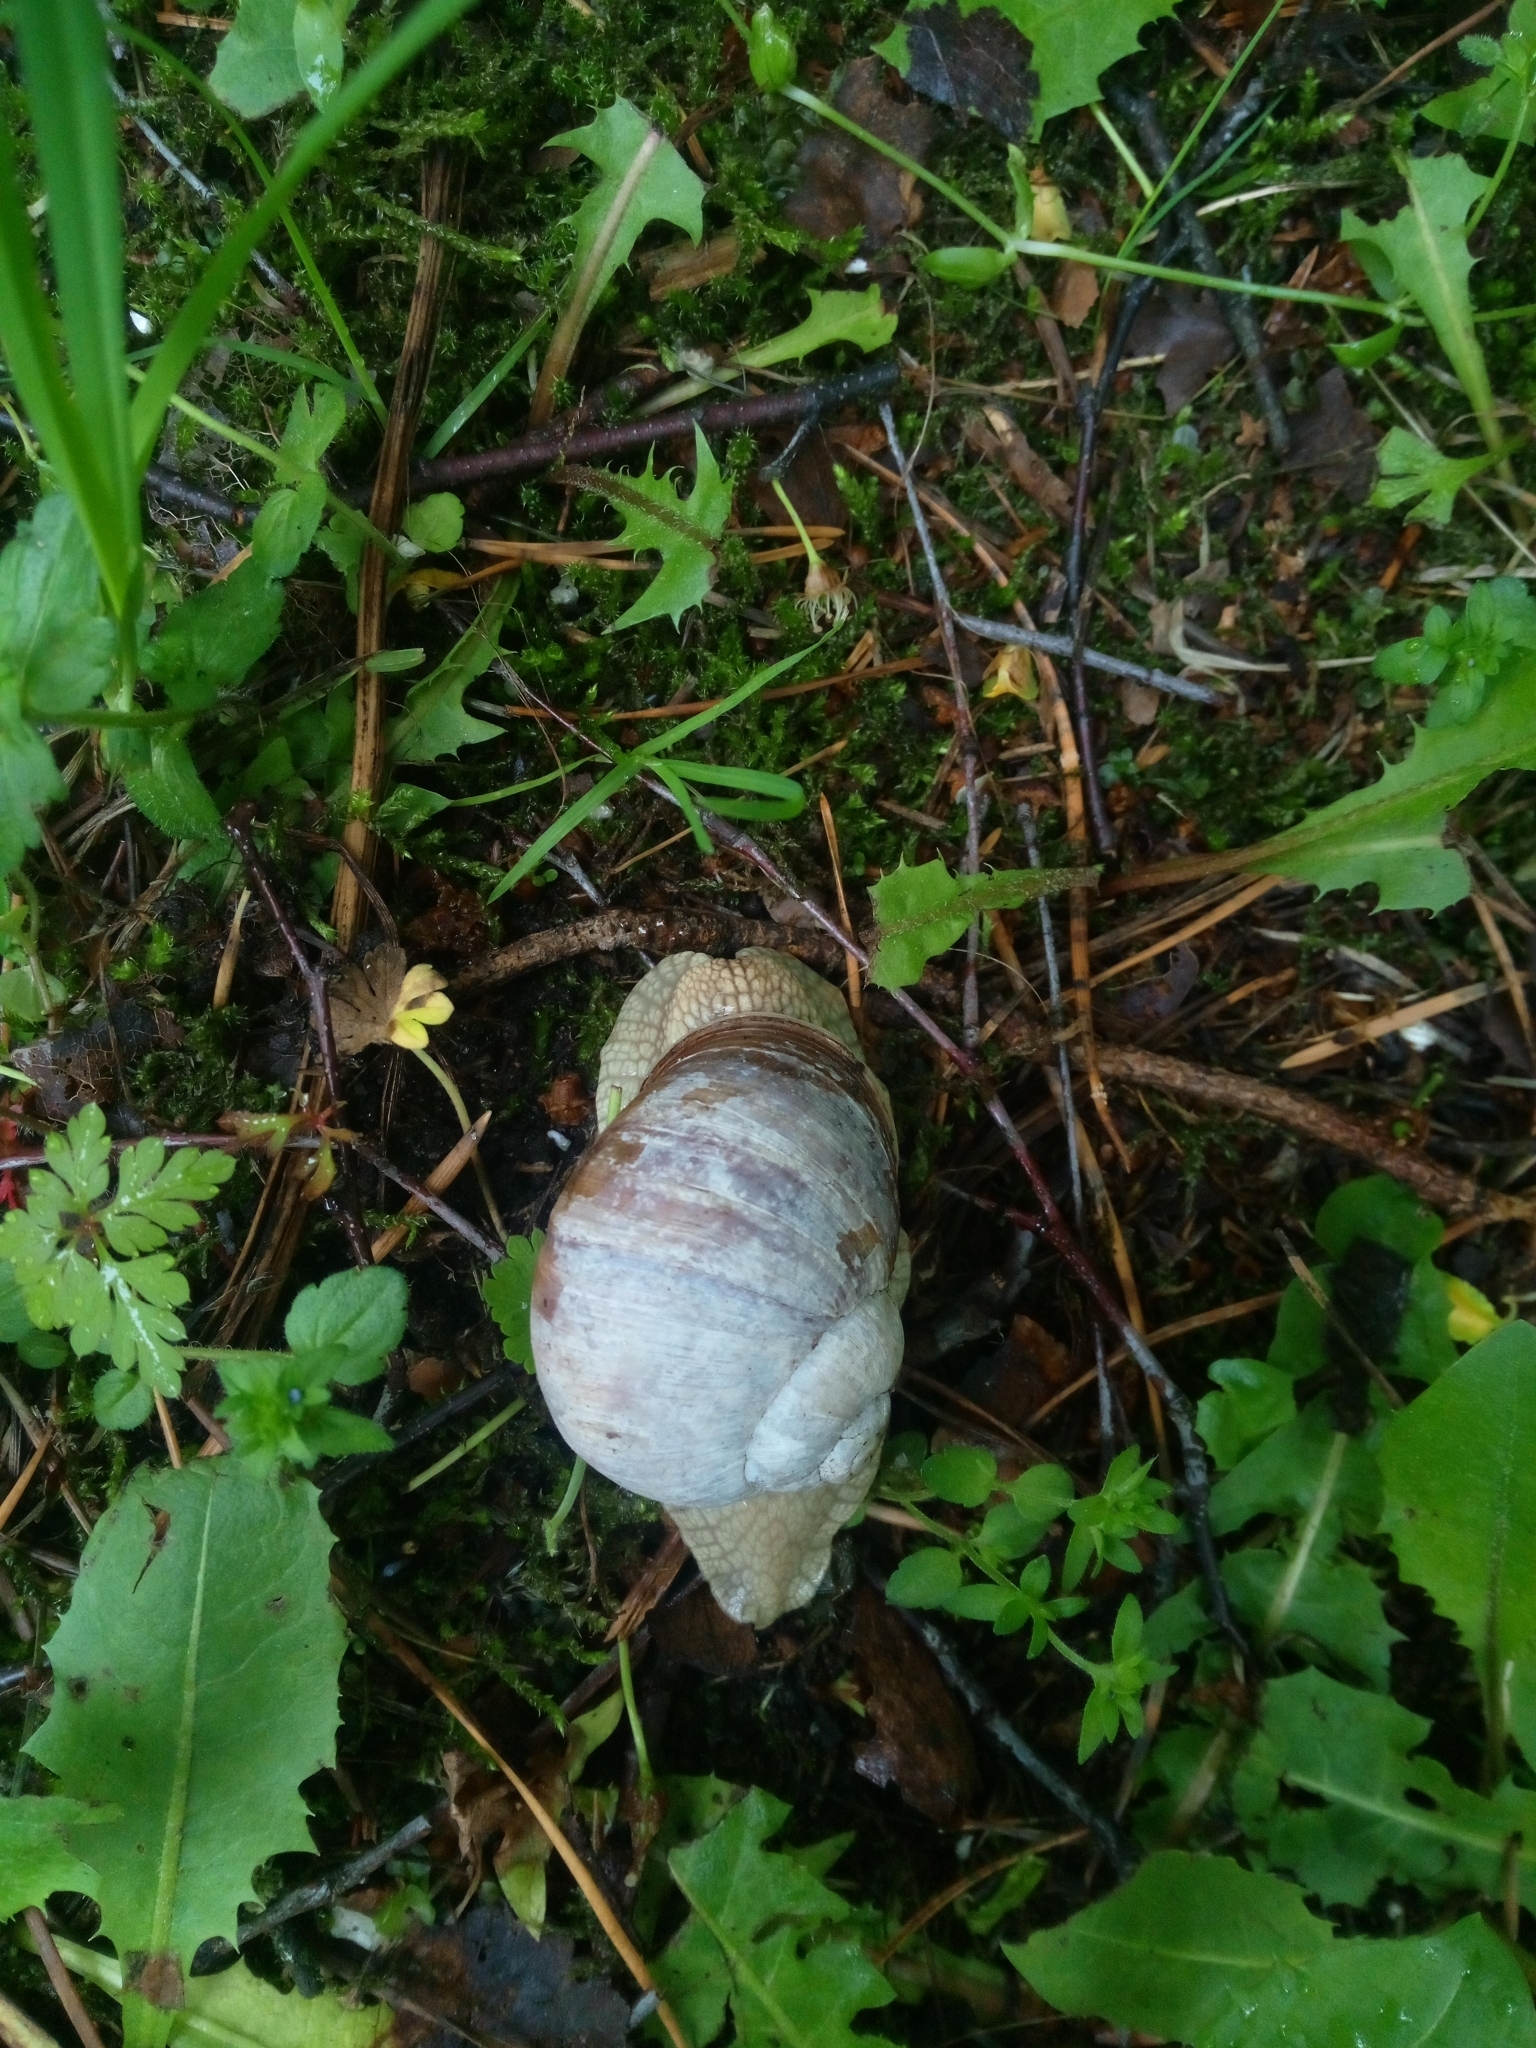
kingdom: Animalia
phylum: Mollusca
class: Gastropoda
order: Stylommatophora
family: Helicidae
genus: Helix
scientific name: Helix pomatia
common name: Roman snail
